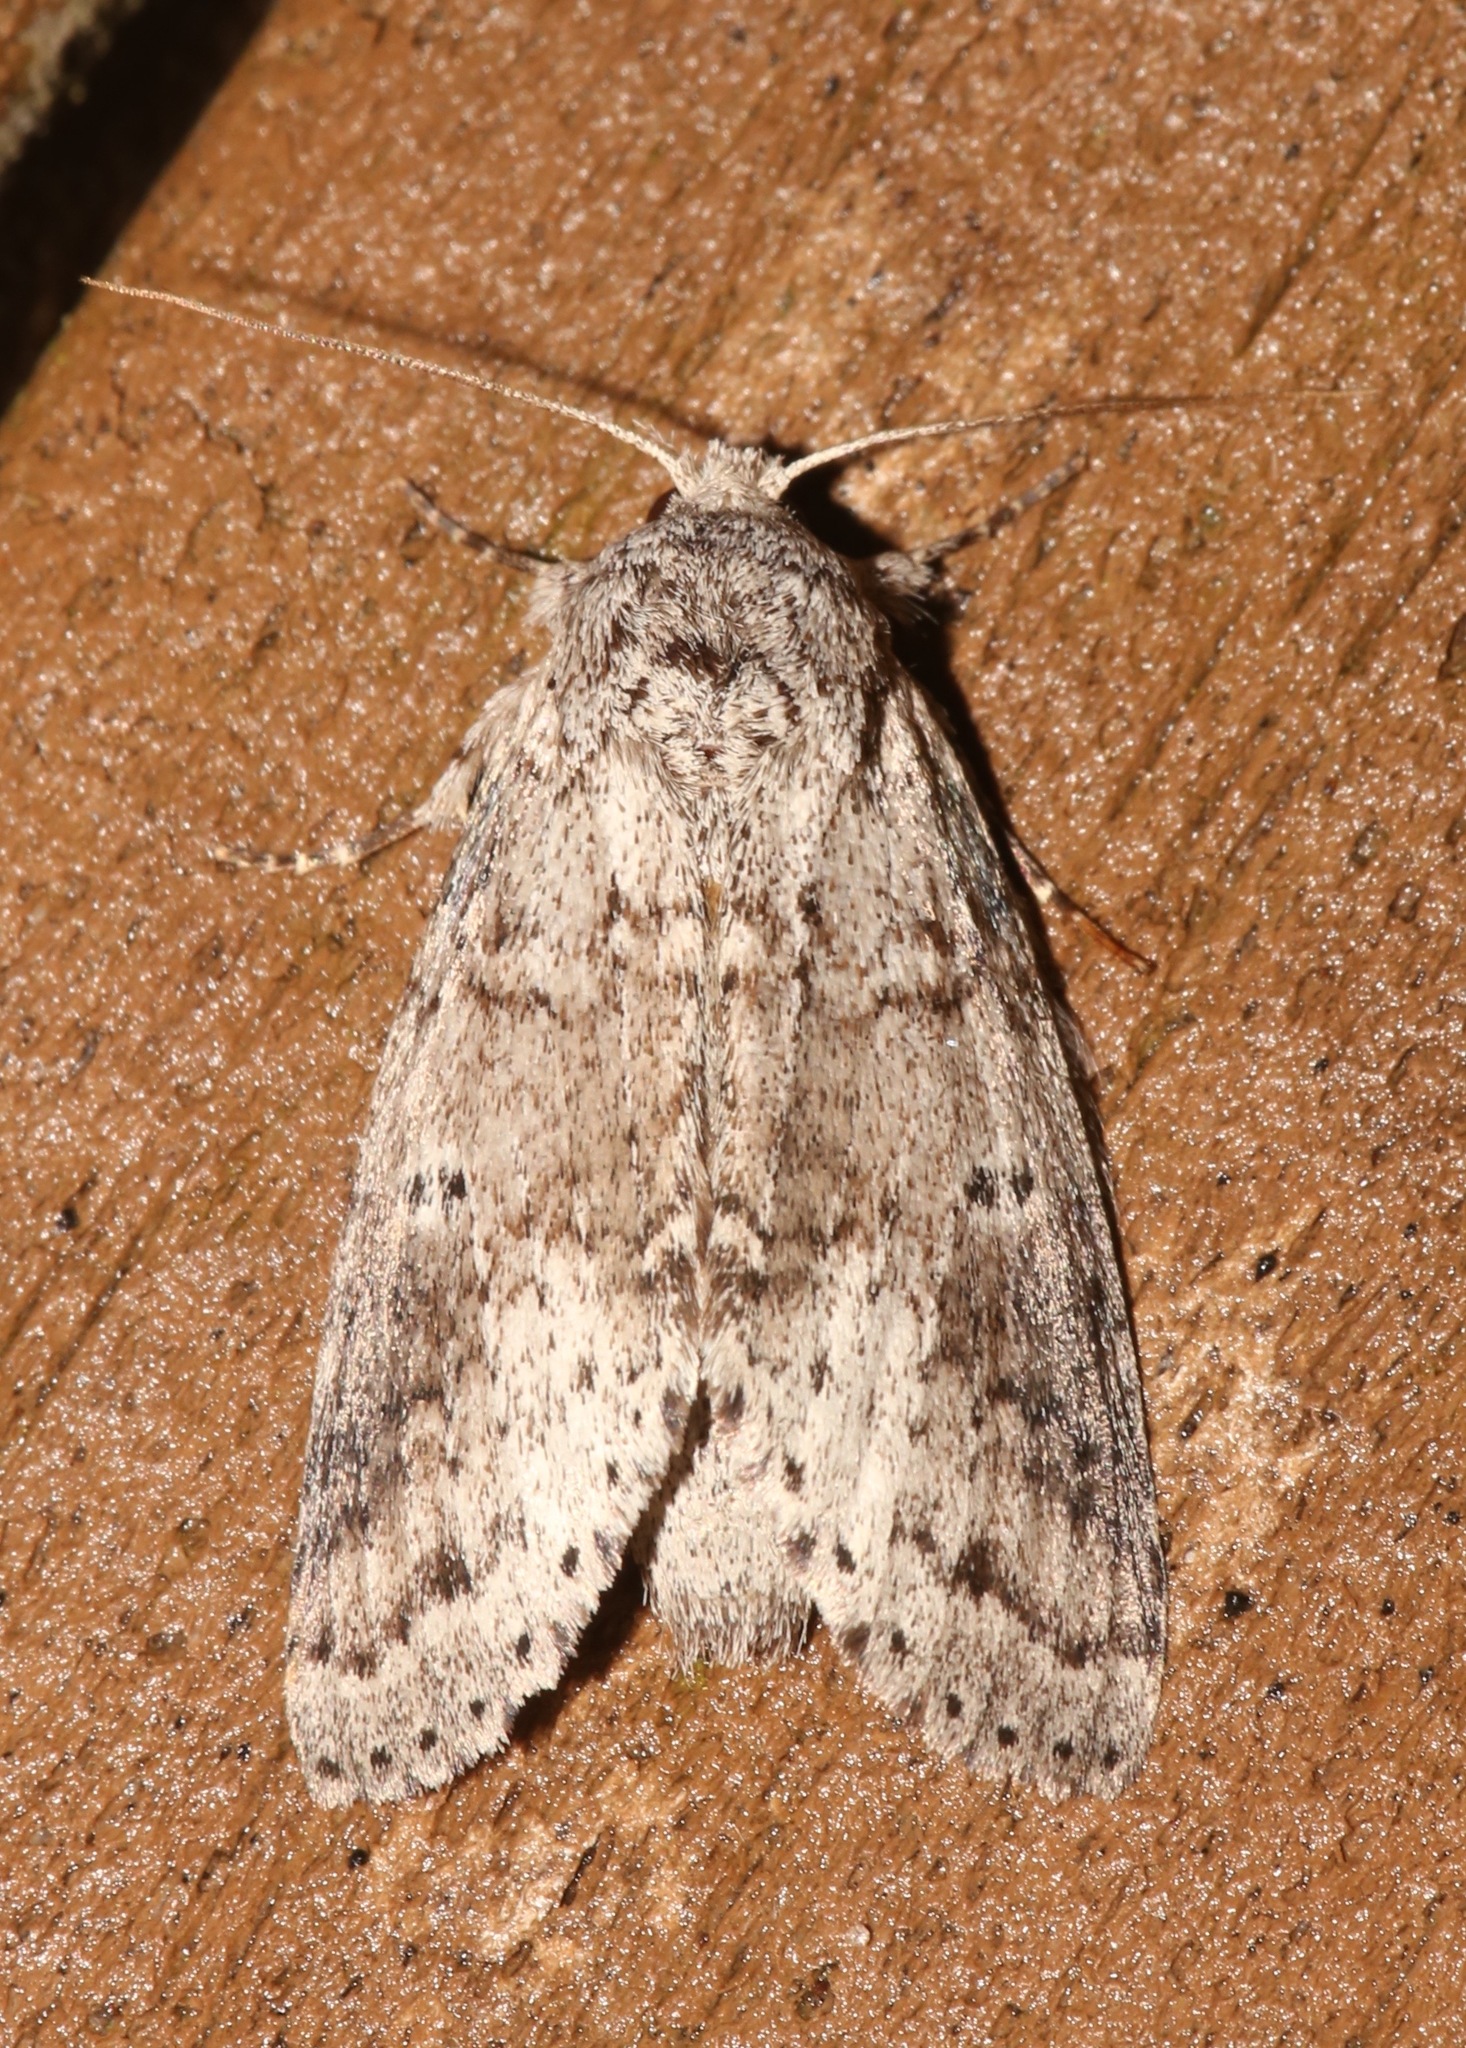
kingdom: Animalia
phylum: Arthropoda
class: Insecta
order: Lepidoptera
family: Notodontidae
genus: Lochmaeus
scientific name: Lochmaeus manteo
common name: Variable oakleaf caterpillar moth
